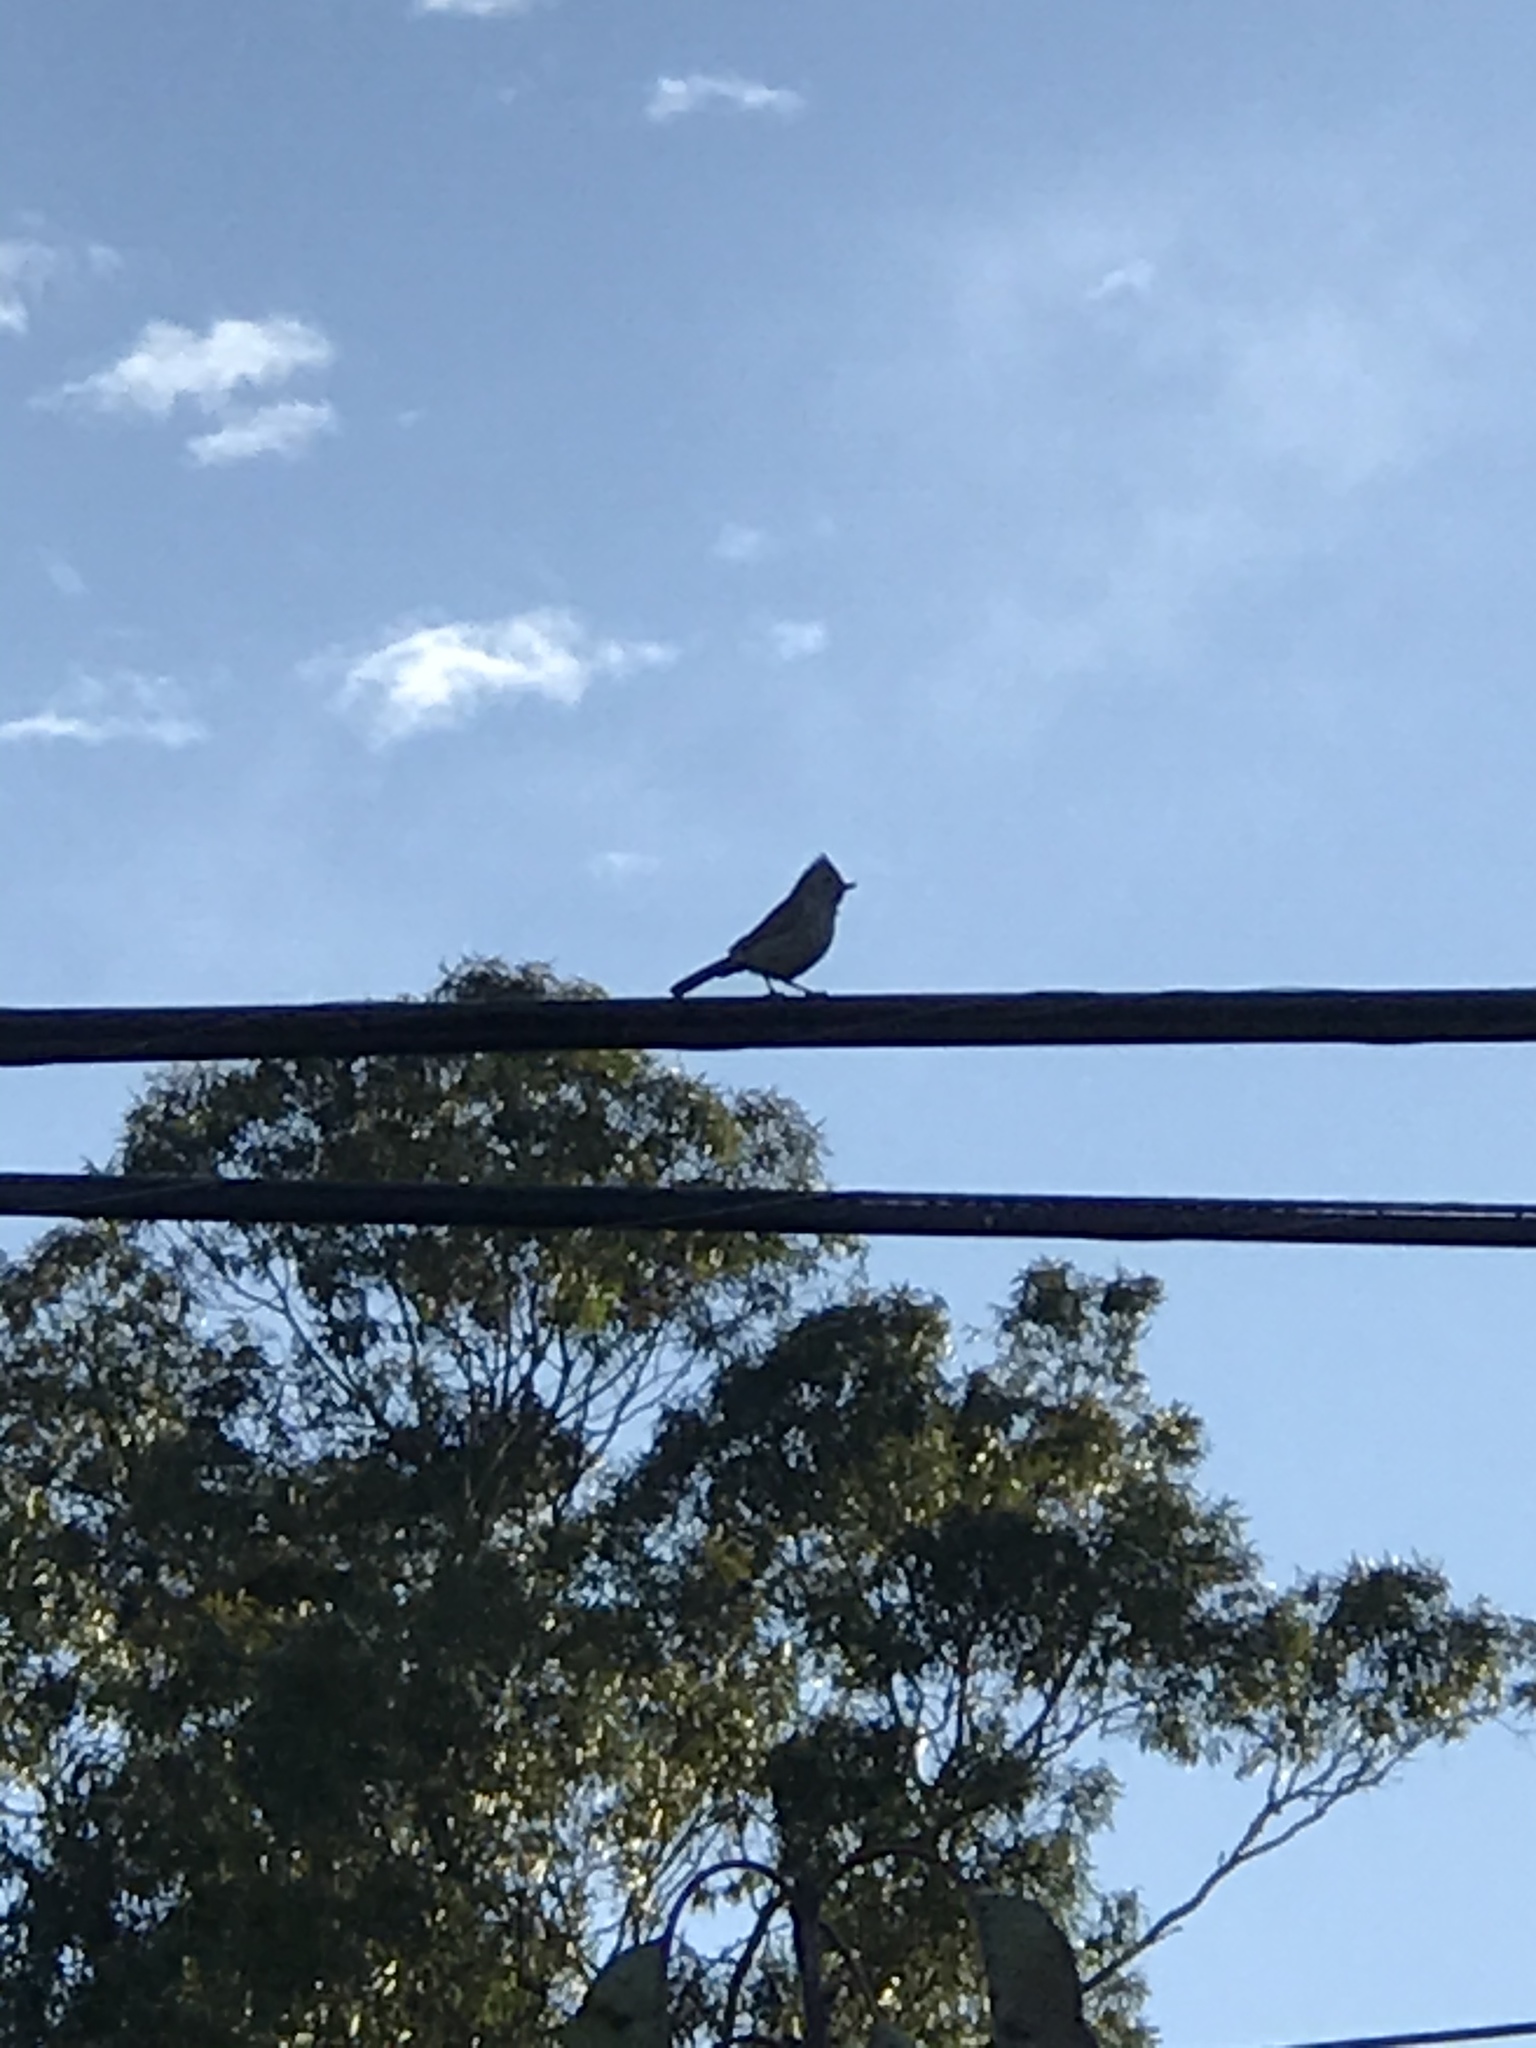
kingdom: Animalia
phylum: Chordata
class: Aves
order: Passeriformes
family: Paridae
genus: Baeolophus
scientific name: Baeolophus inornatus
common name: Oak titmouse
